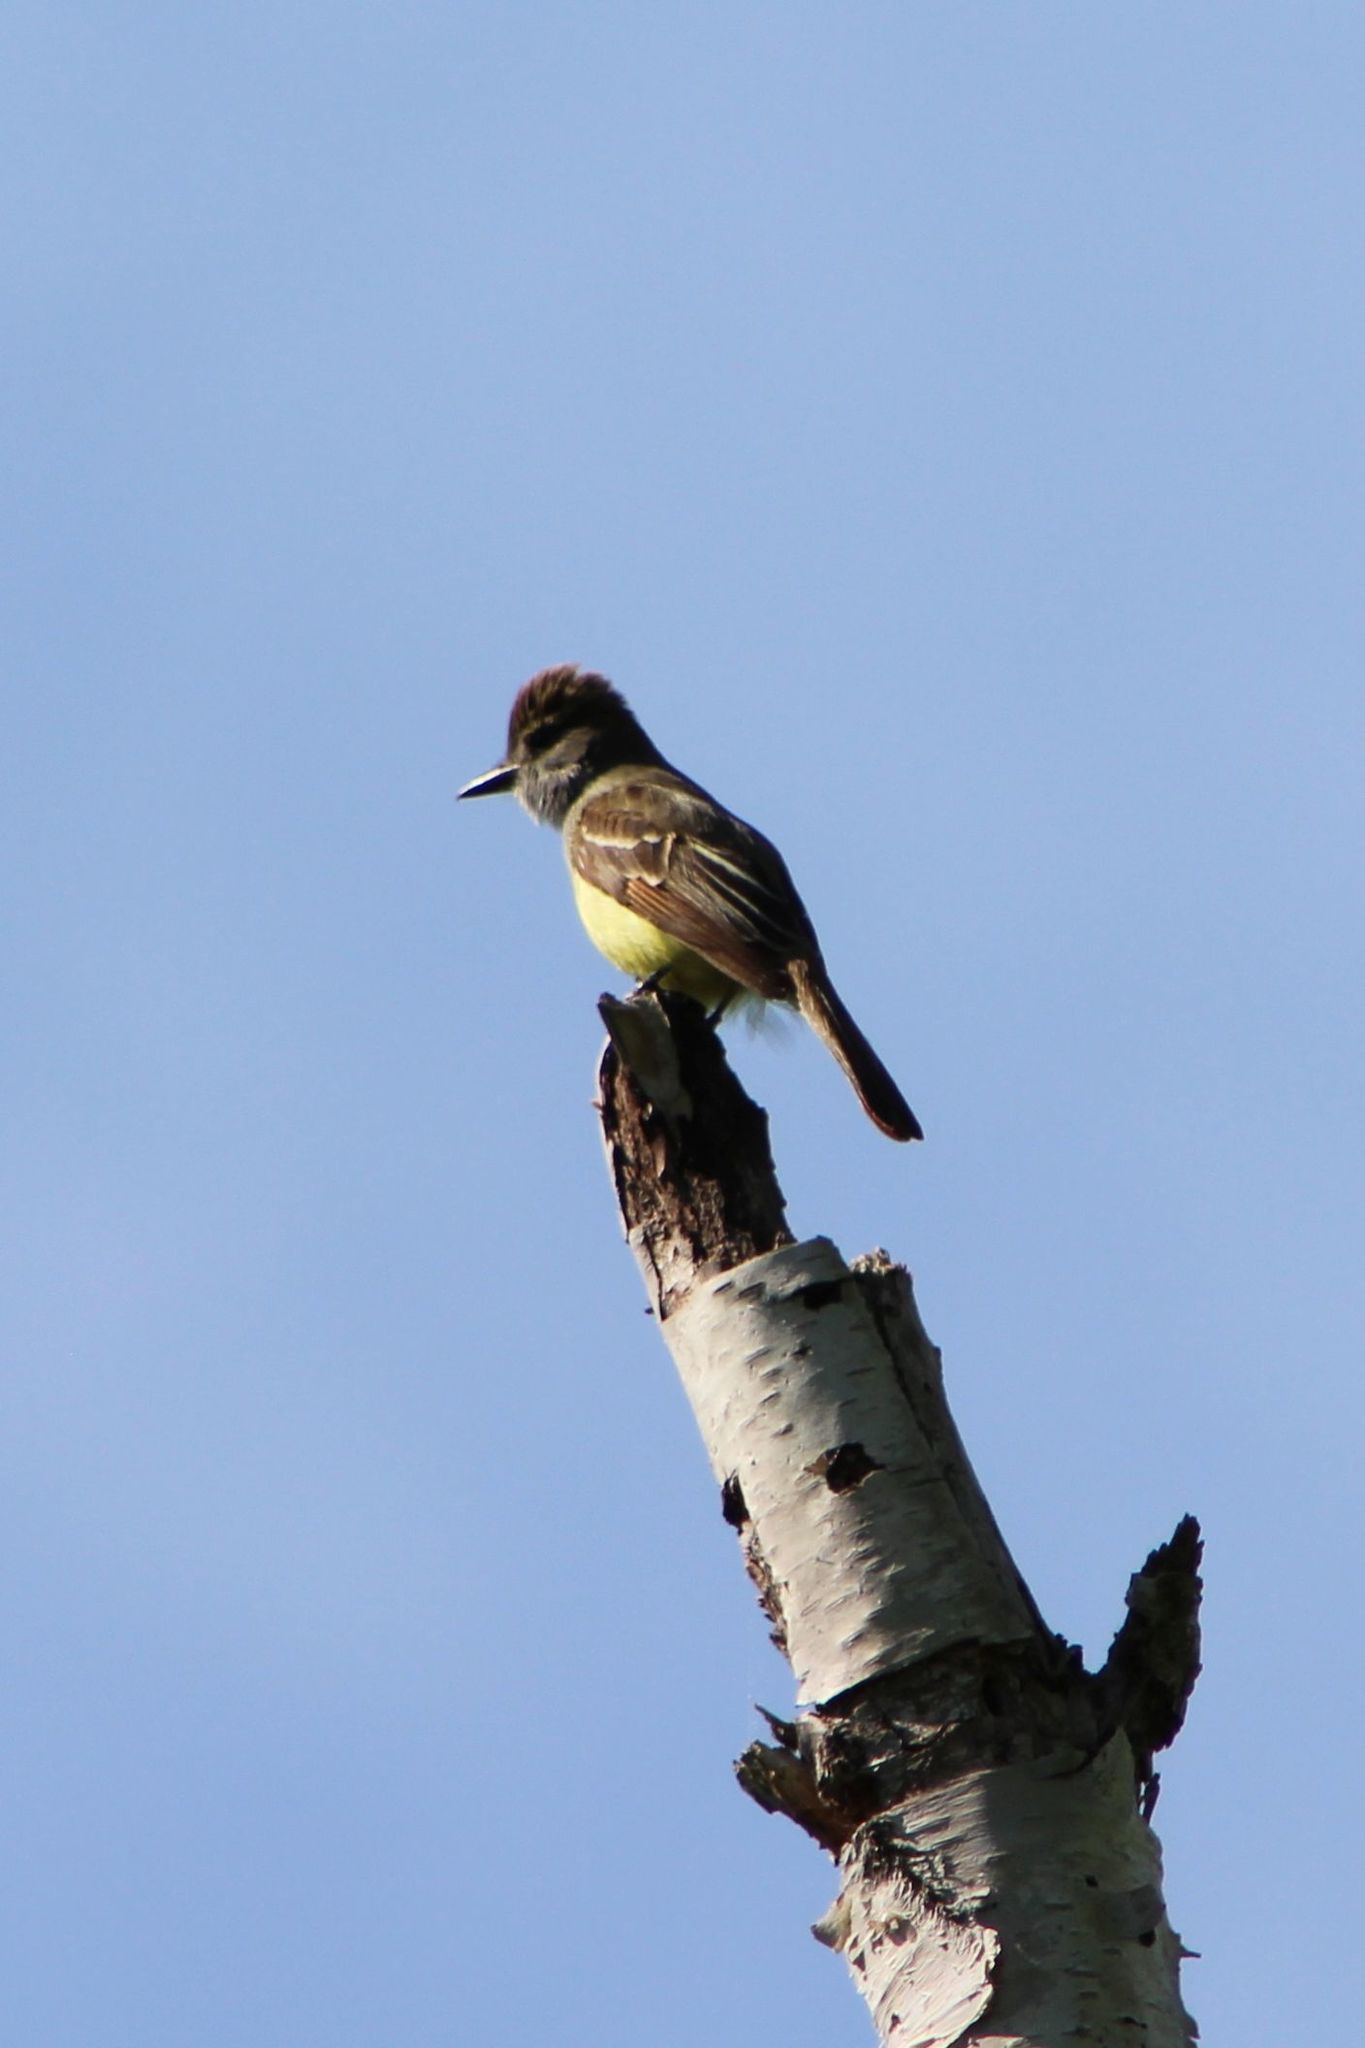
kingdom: Animalia
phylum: Chordata
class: Aves
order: Passeriformes
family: Tyrannidae
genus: Myiarchus
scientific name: Myiarchus crinitus
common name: Great crested flycatcher
